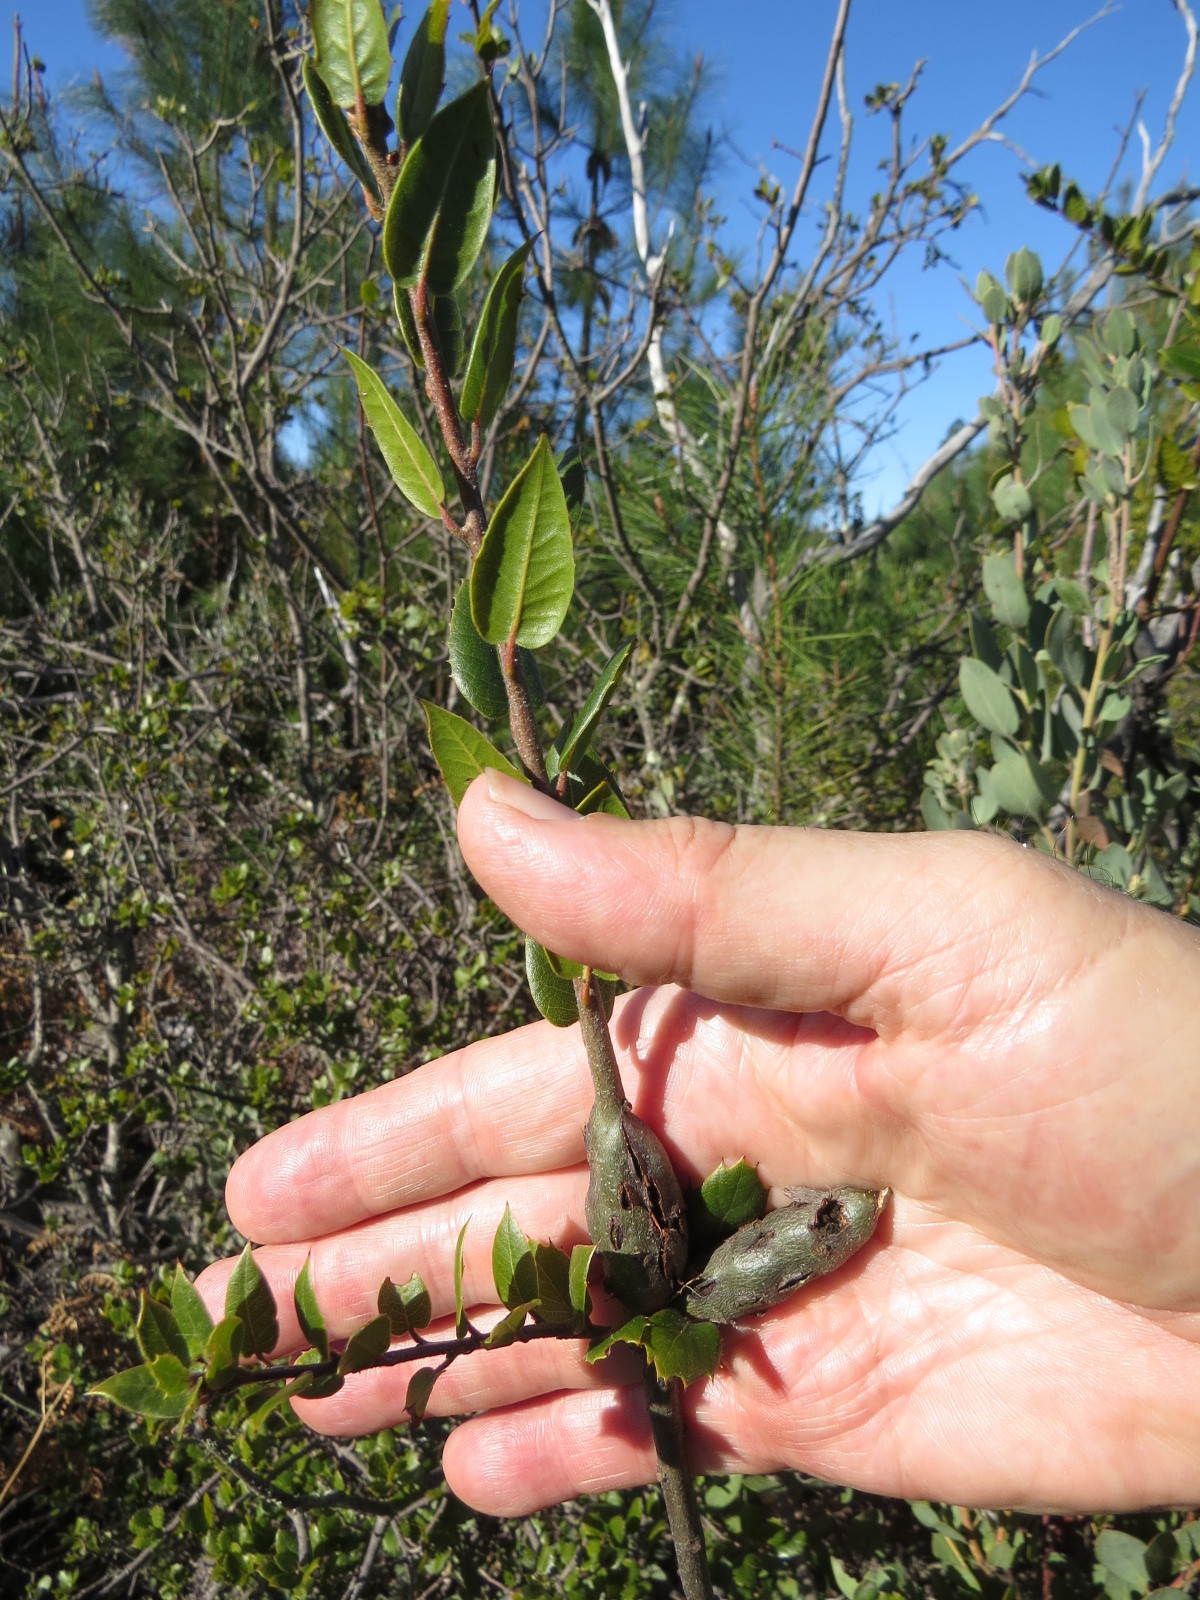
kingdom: Animalia
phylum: Arthropoda
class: Insecta
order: Hymenoptera
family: Cynipidae
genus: Callirhytis
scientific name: Callirhytis
